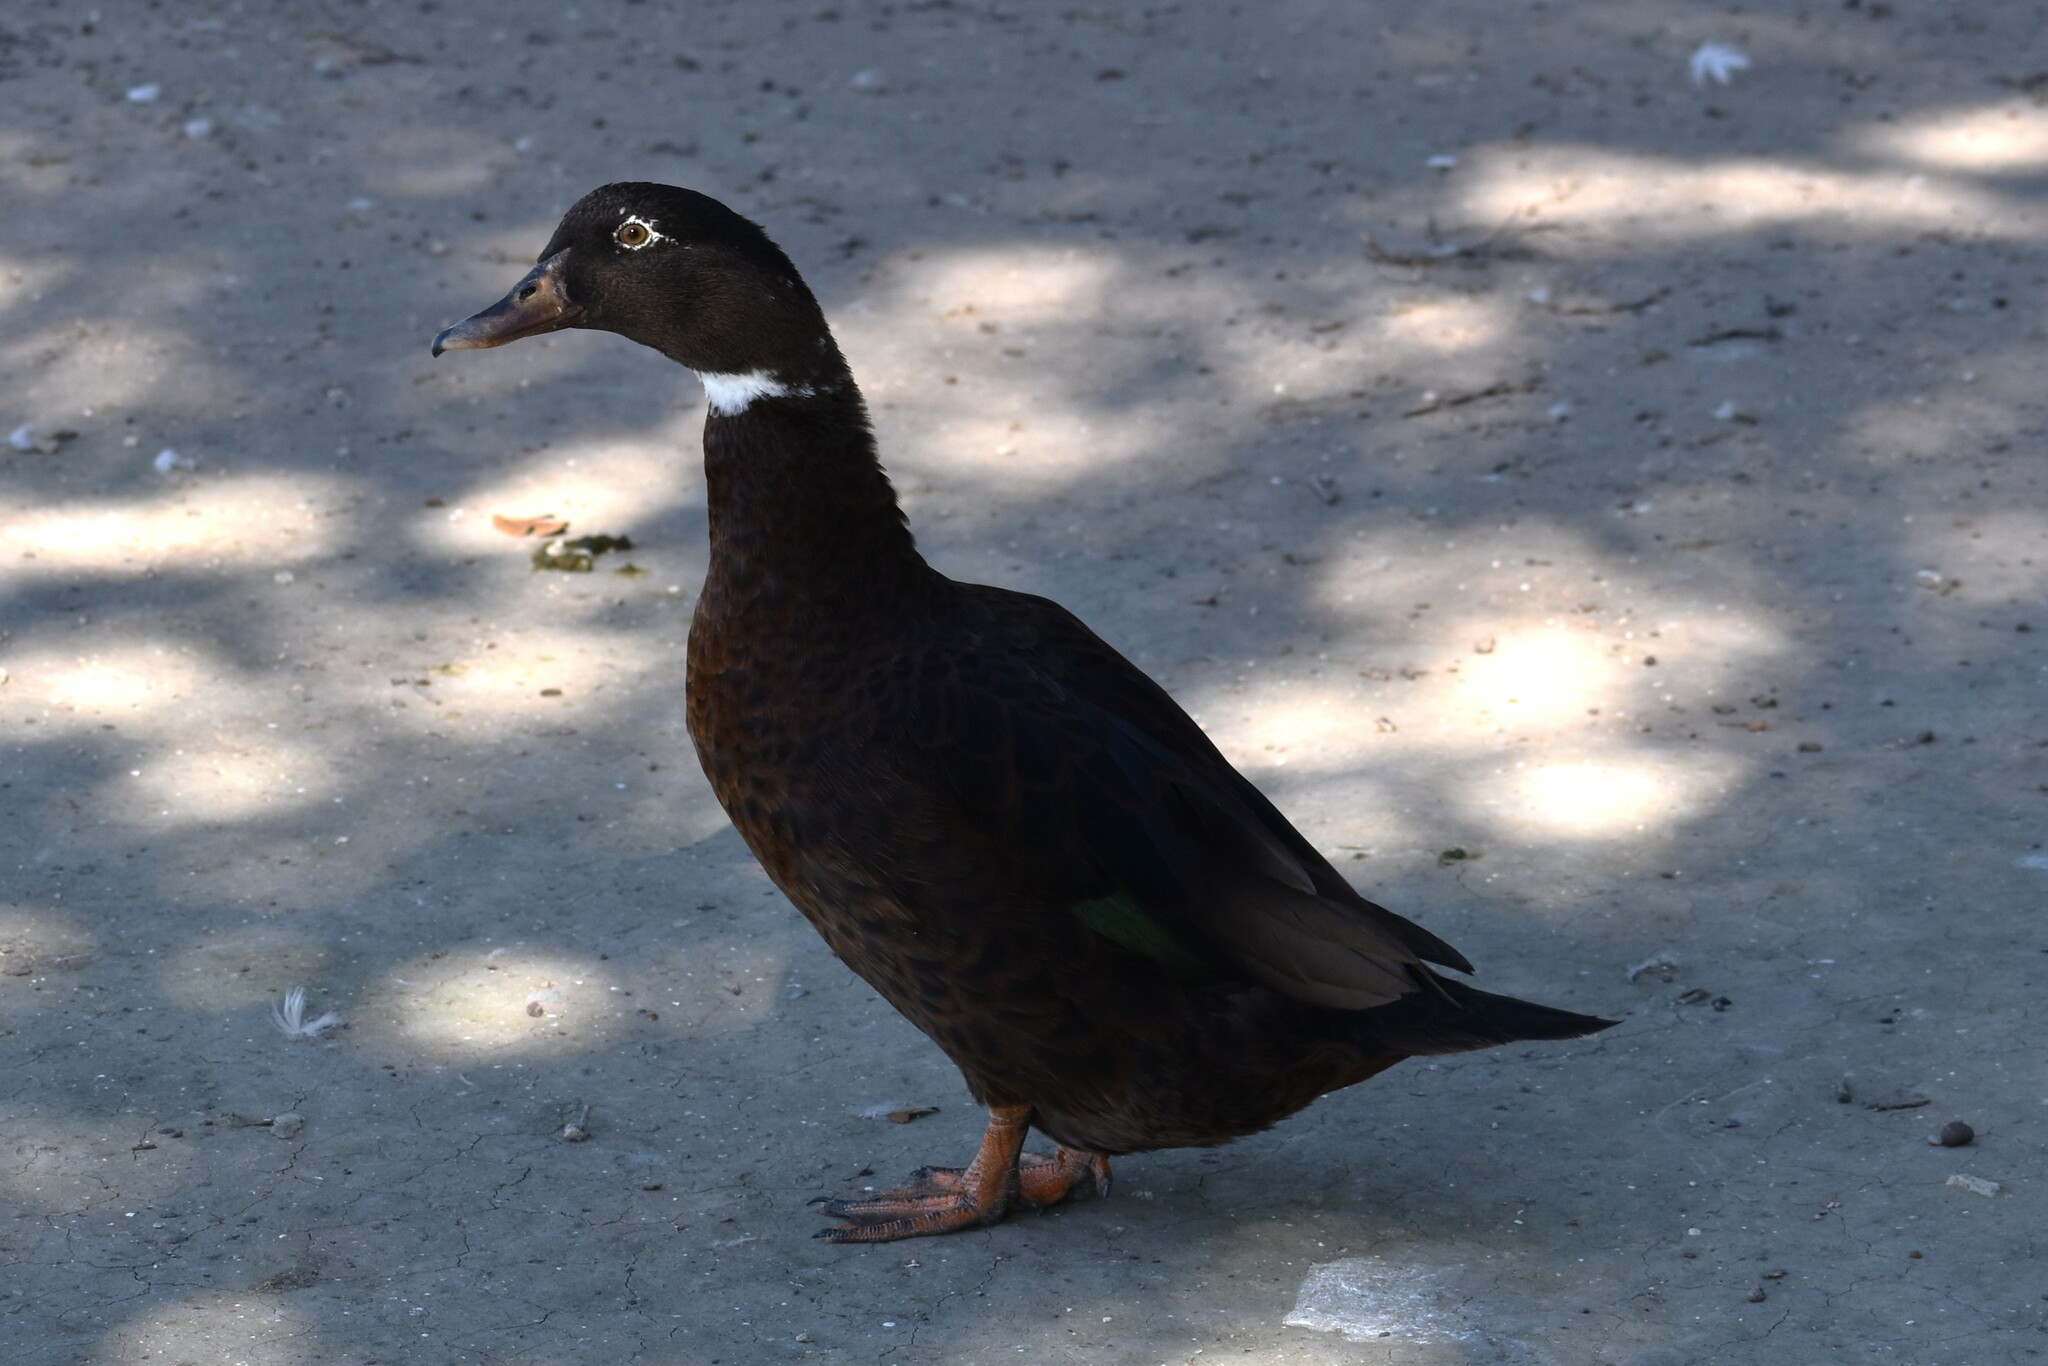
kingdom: Animalia
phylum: Chordata
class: Aves
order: Anseriformes
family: Anatidae
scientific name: Anatidae
